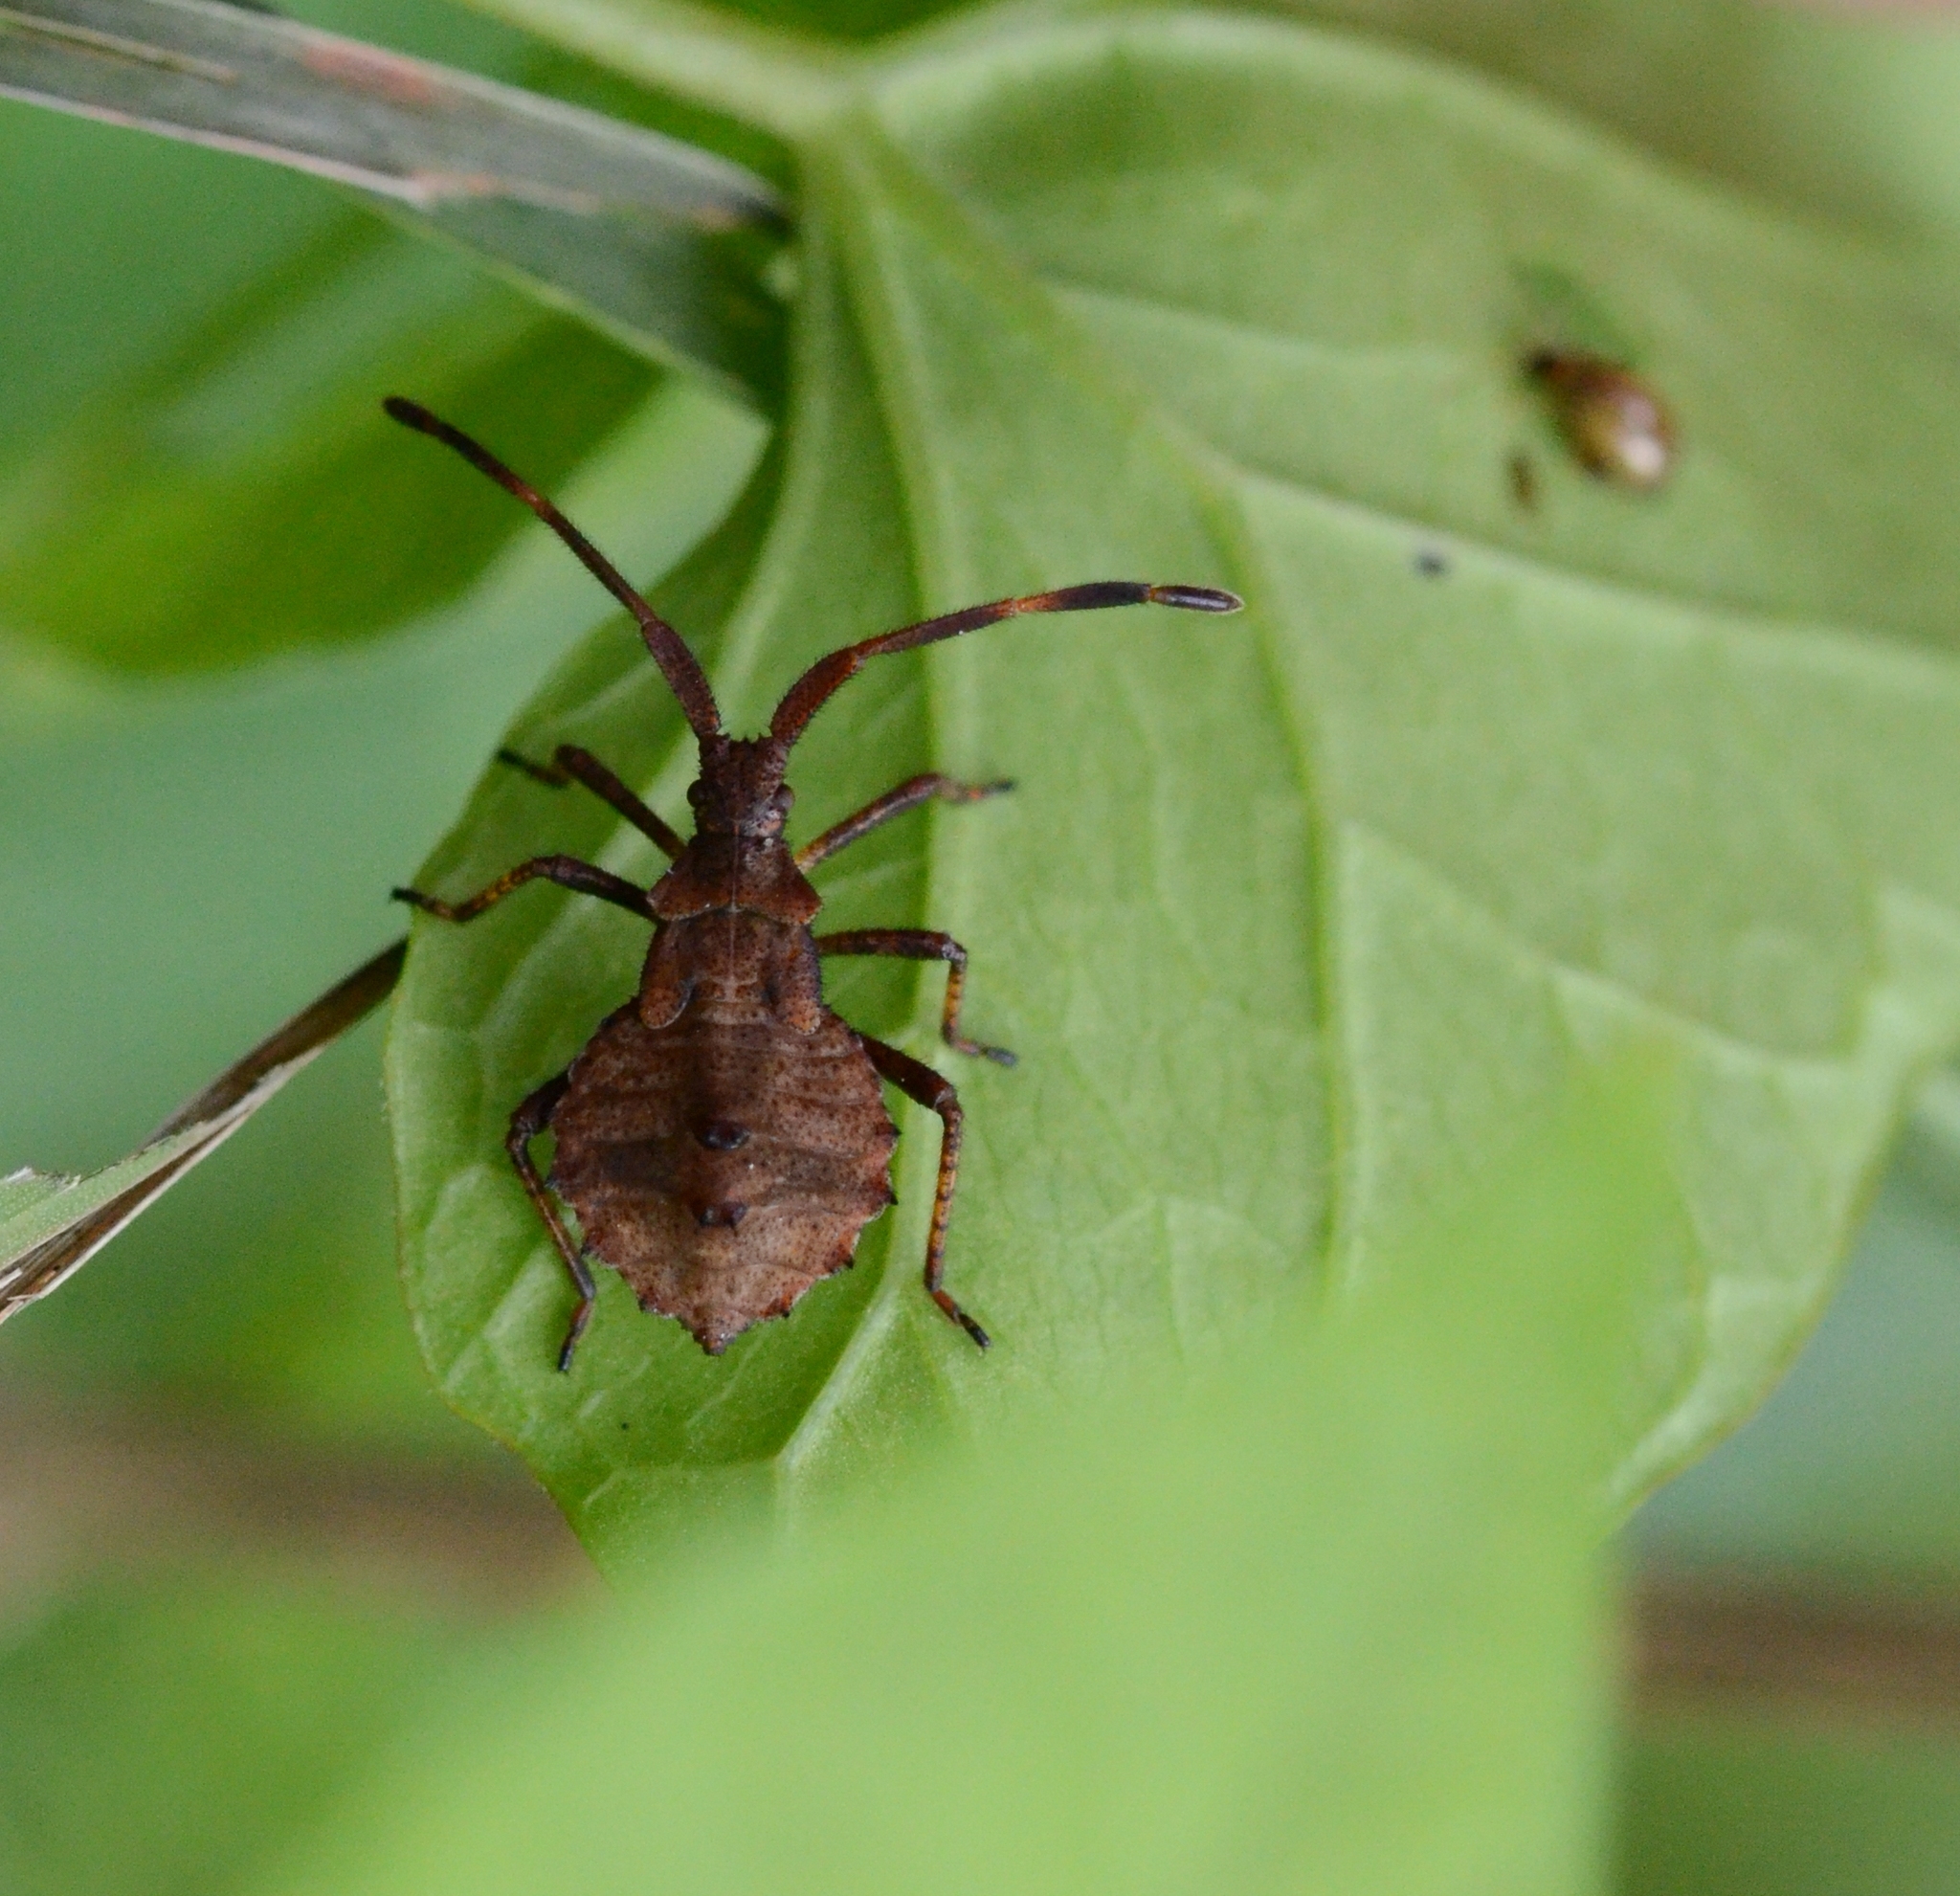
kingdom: Animalia
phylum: Arthropoda
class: Insecta
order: Hemiptera
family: Coreidae
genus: Coreus
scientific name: Coreus marginatus
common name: Dock bug
